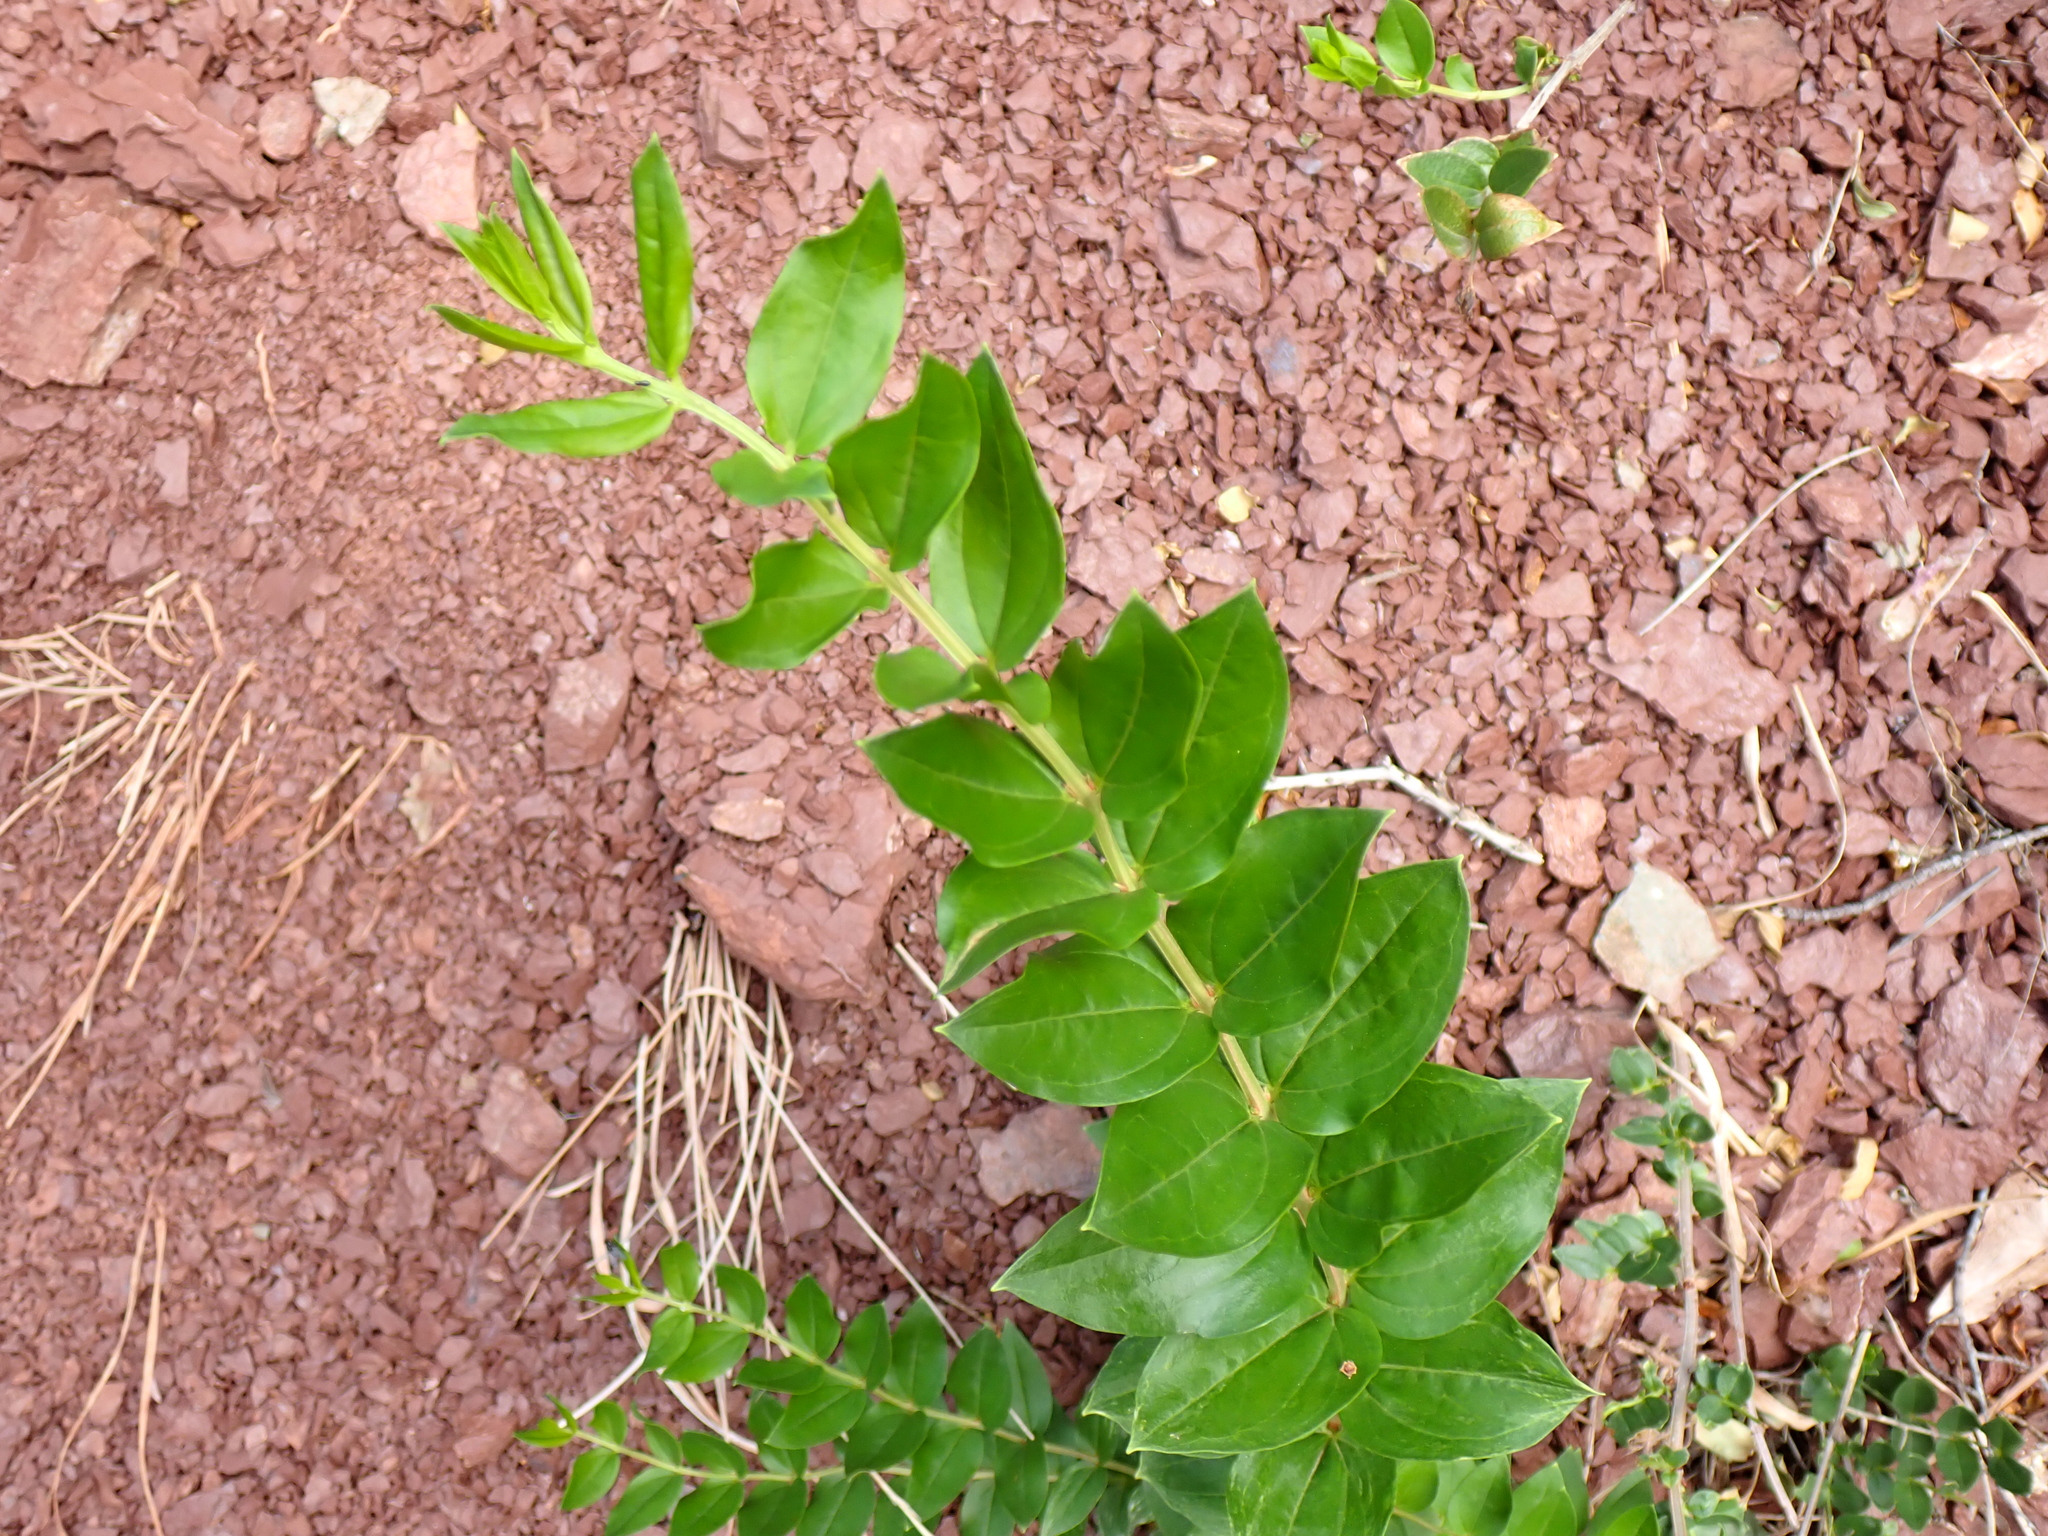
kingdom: Plantae
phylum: Tracheophyta
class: Magnoliopsida
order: Cucurbitales
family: Coriariaceae
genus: Coriaria
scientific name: Coriaria myrtifolia
